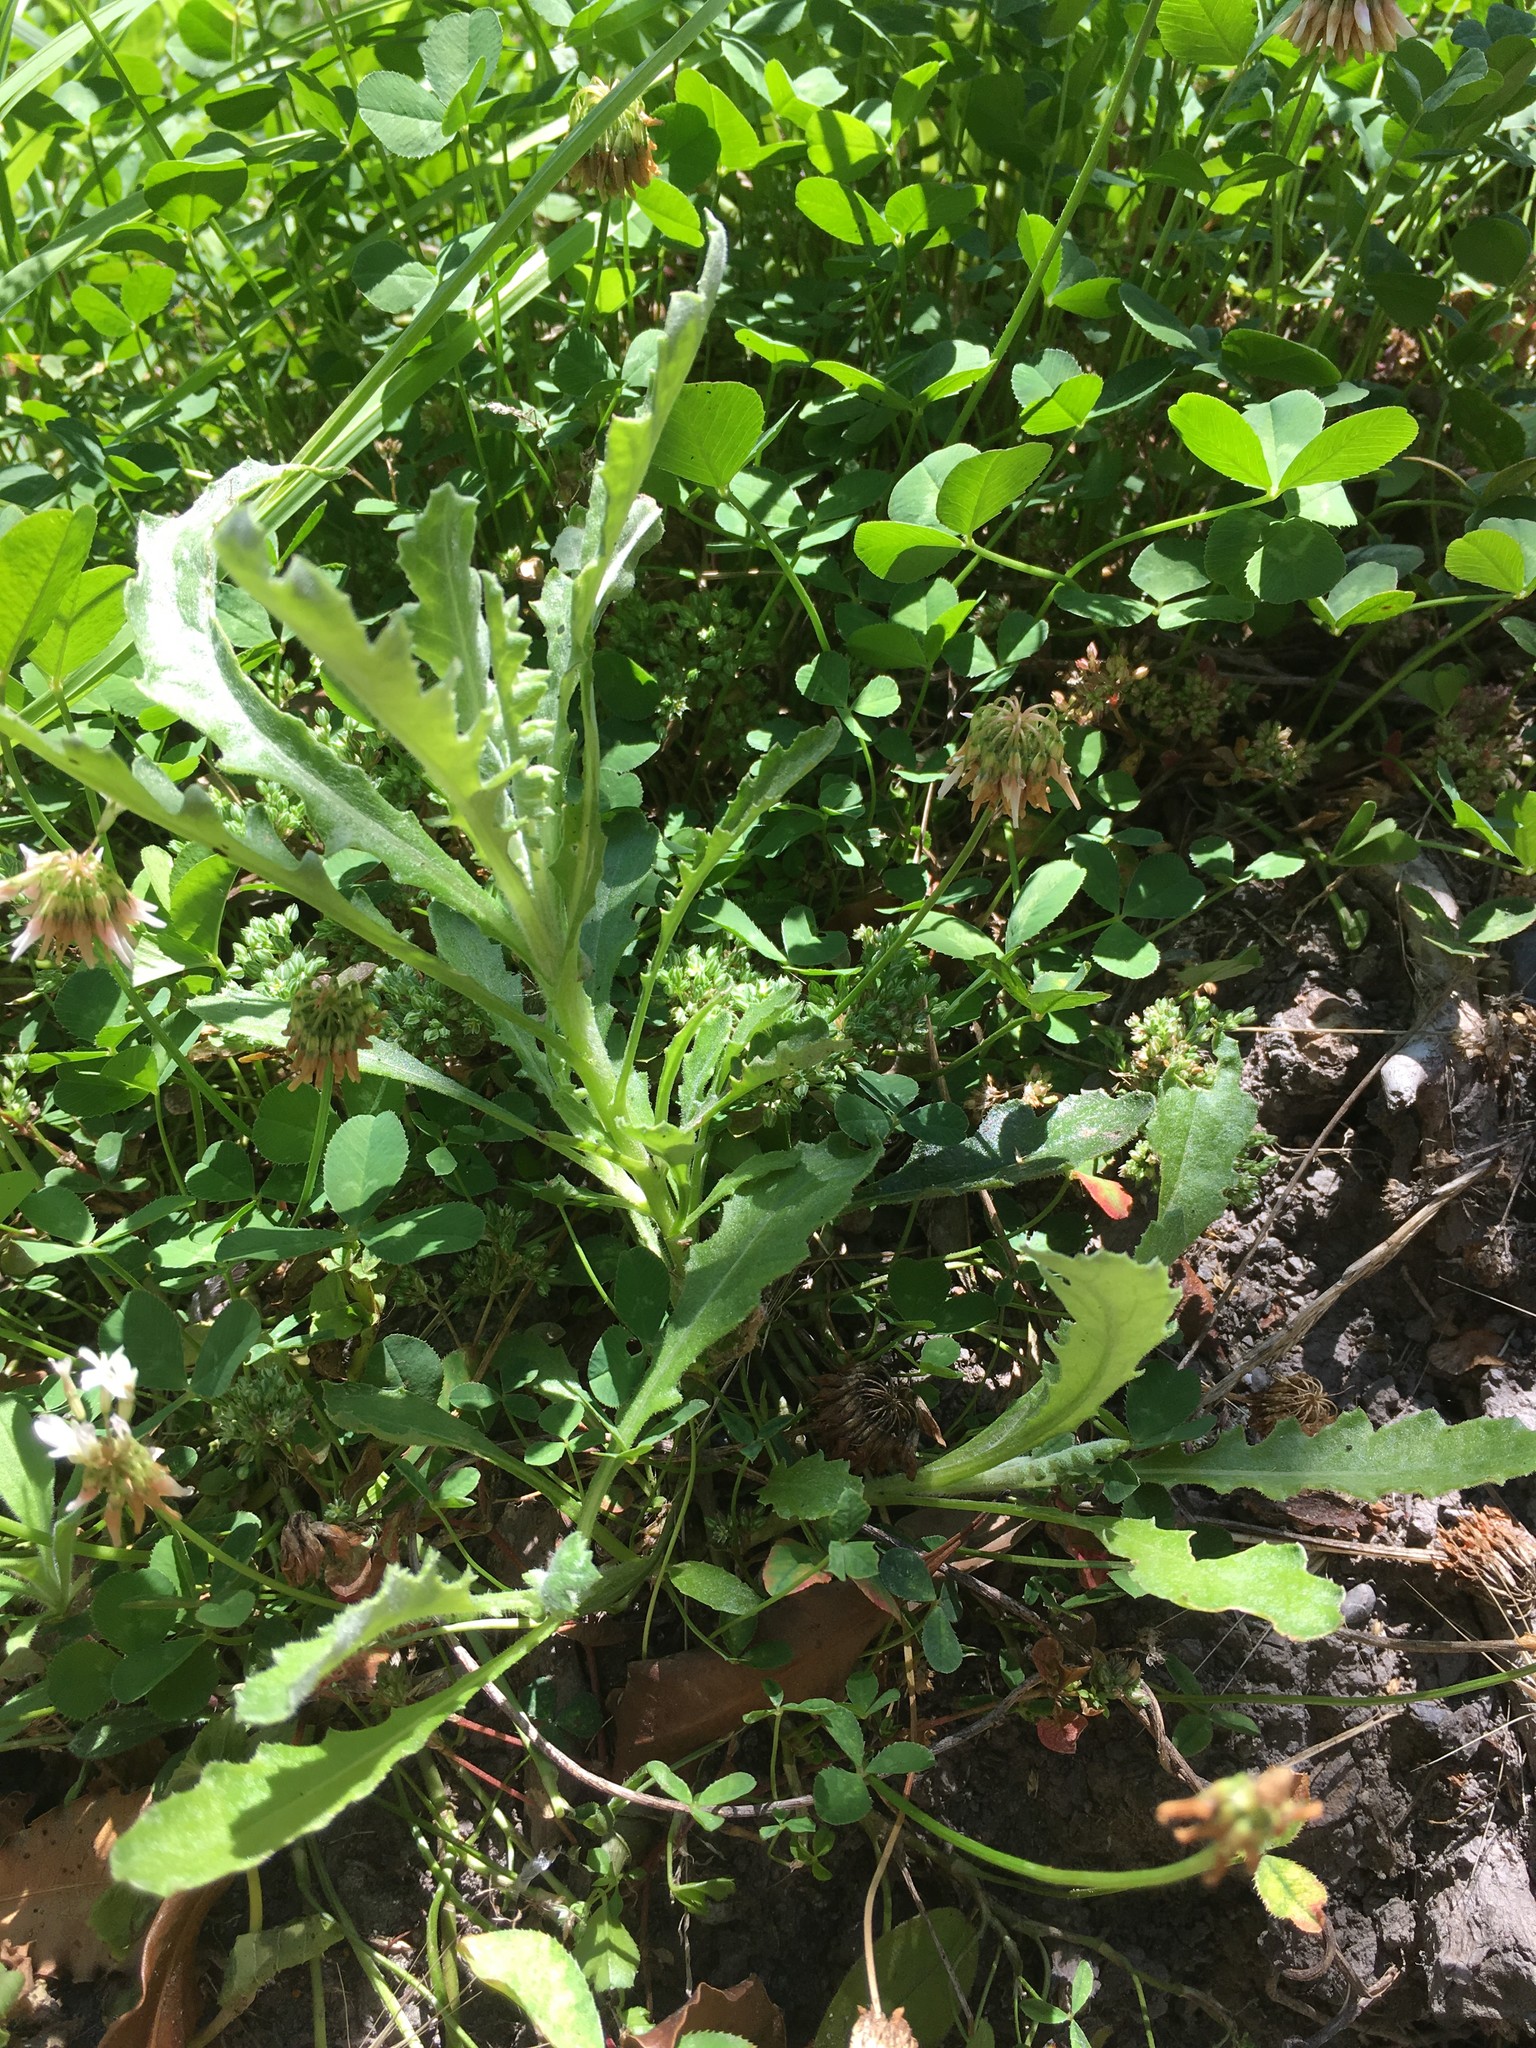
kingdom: Plantae
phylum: Tracheophyta
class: Magnoliopsida
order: Asterales
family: Asteraceae
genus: Senecio
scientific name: Senecio glomeratus
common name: Cutleaf burnweed
